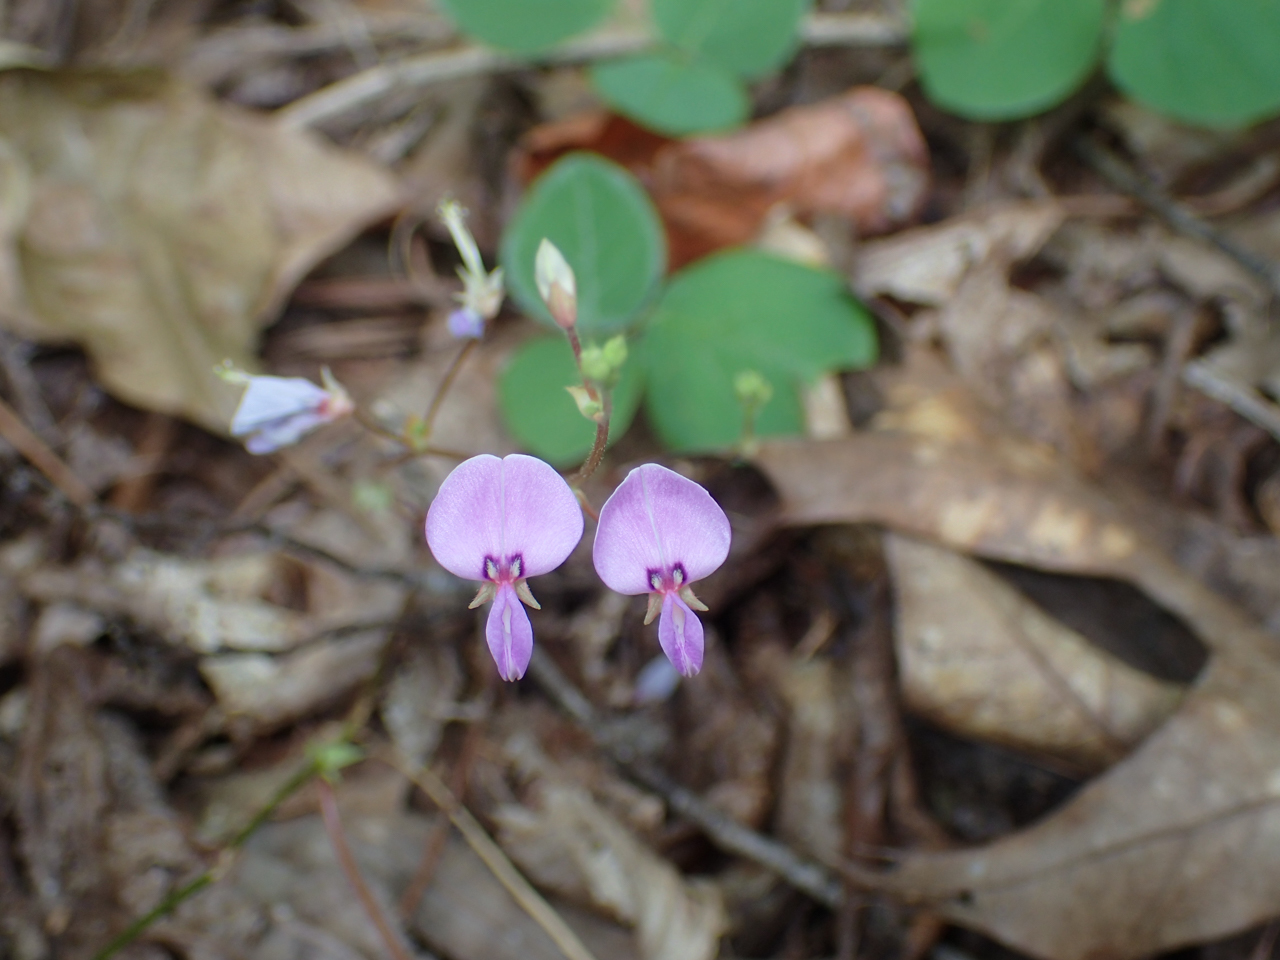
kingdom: Plantae
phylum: Tracheophyta
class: Magnoliopsida
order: Fabales
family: Fabaceae
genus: Desmodium
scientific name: Desmodium paniculatum
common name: Panicled tick-clover
